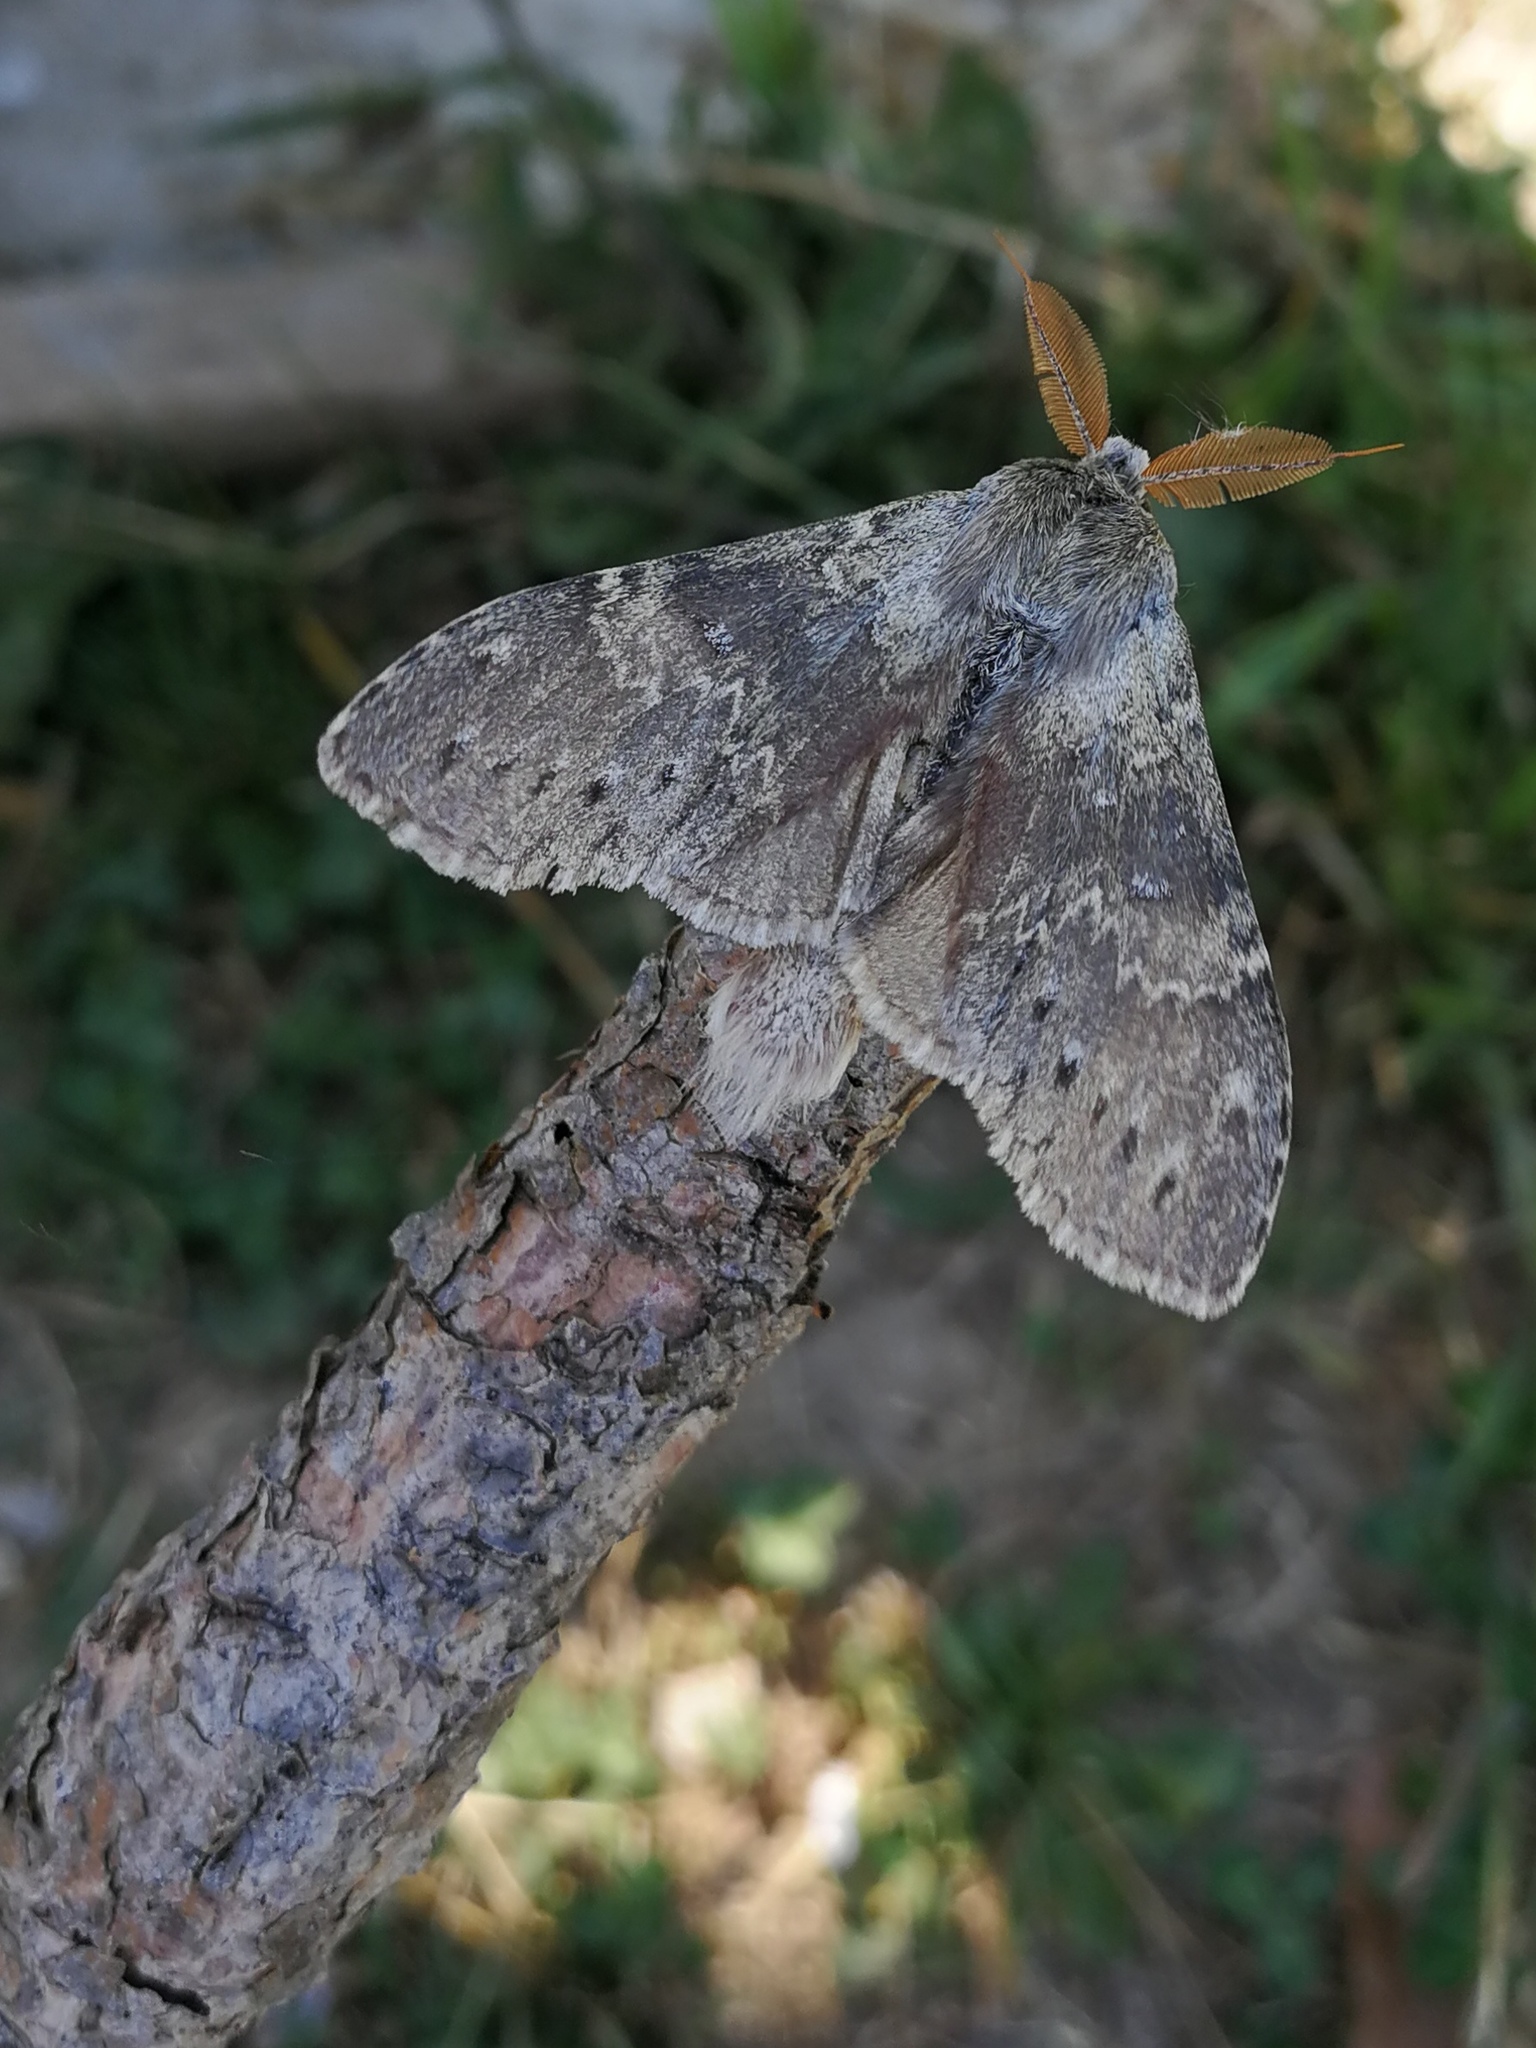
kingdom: Animalia
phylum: Arthropoda
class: Insecta
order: Lepidoptera
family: Notodontidae
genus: Stauropus
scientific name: Stauropus fagi
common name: Lobster moth
